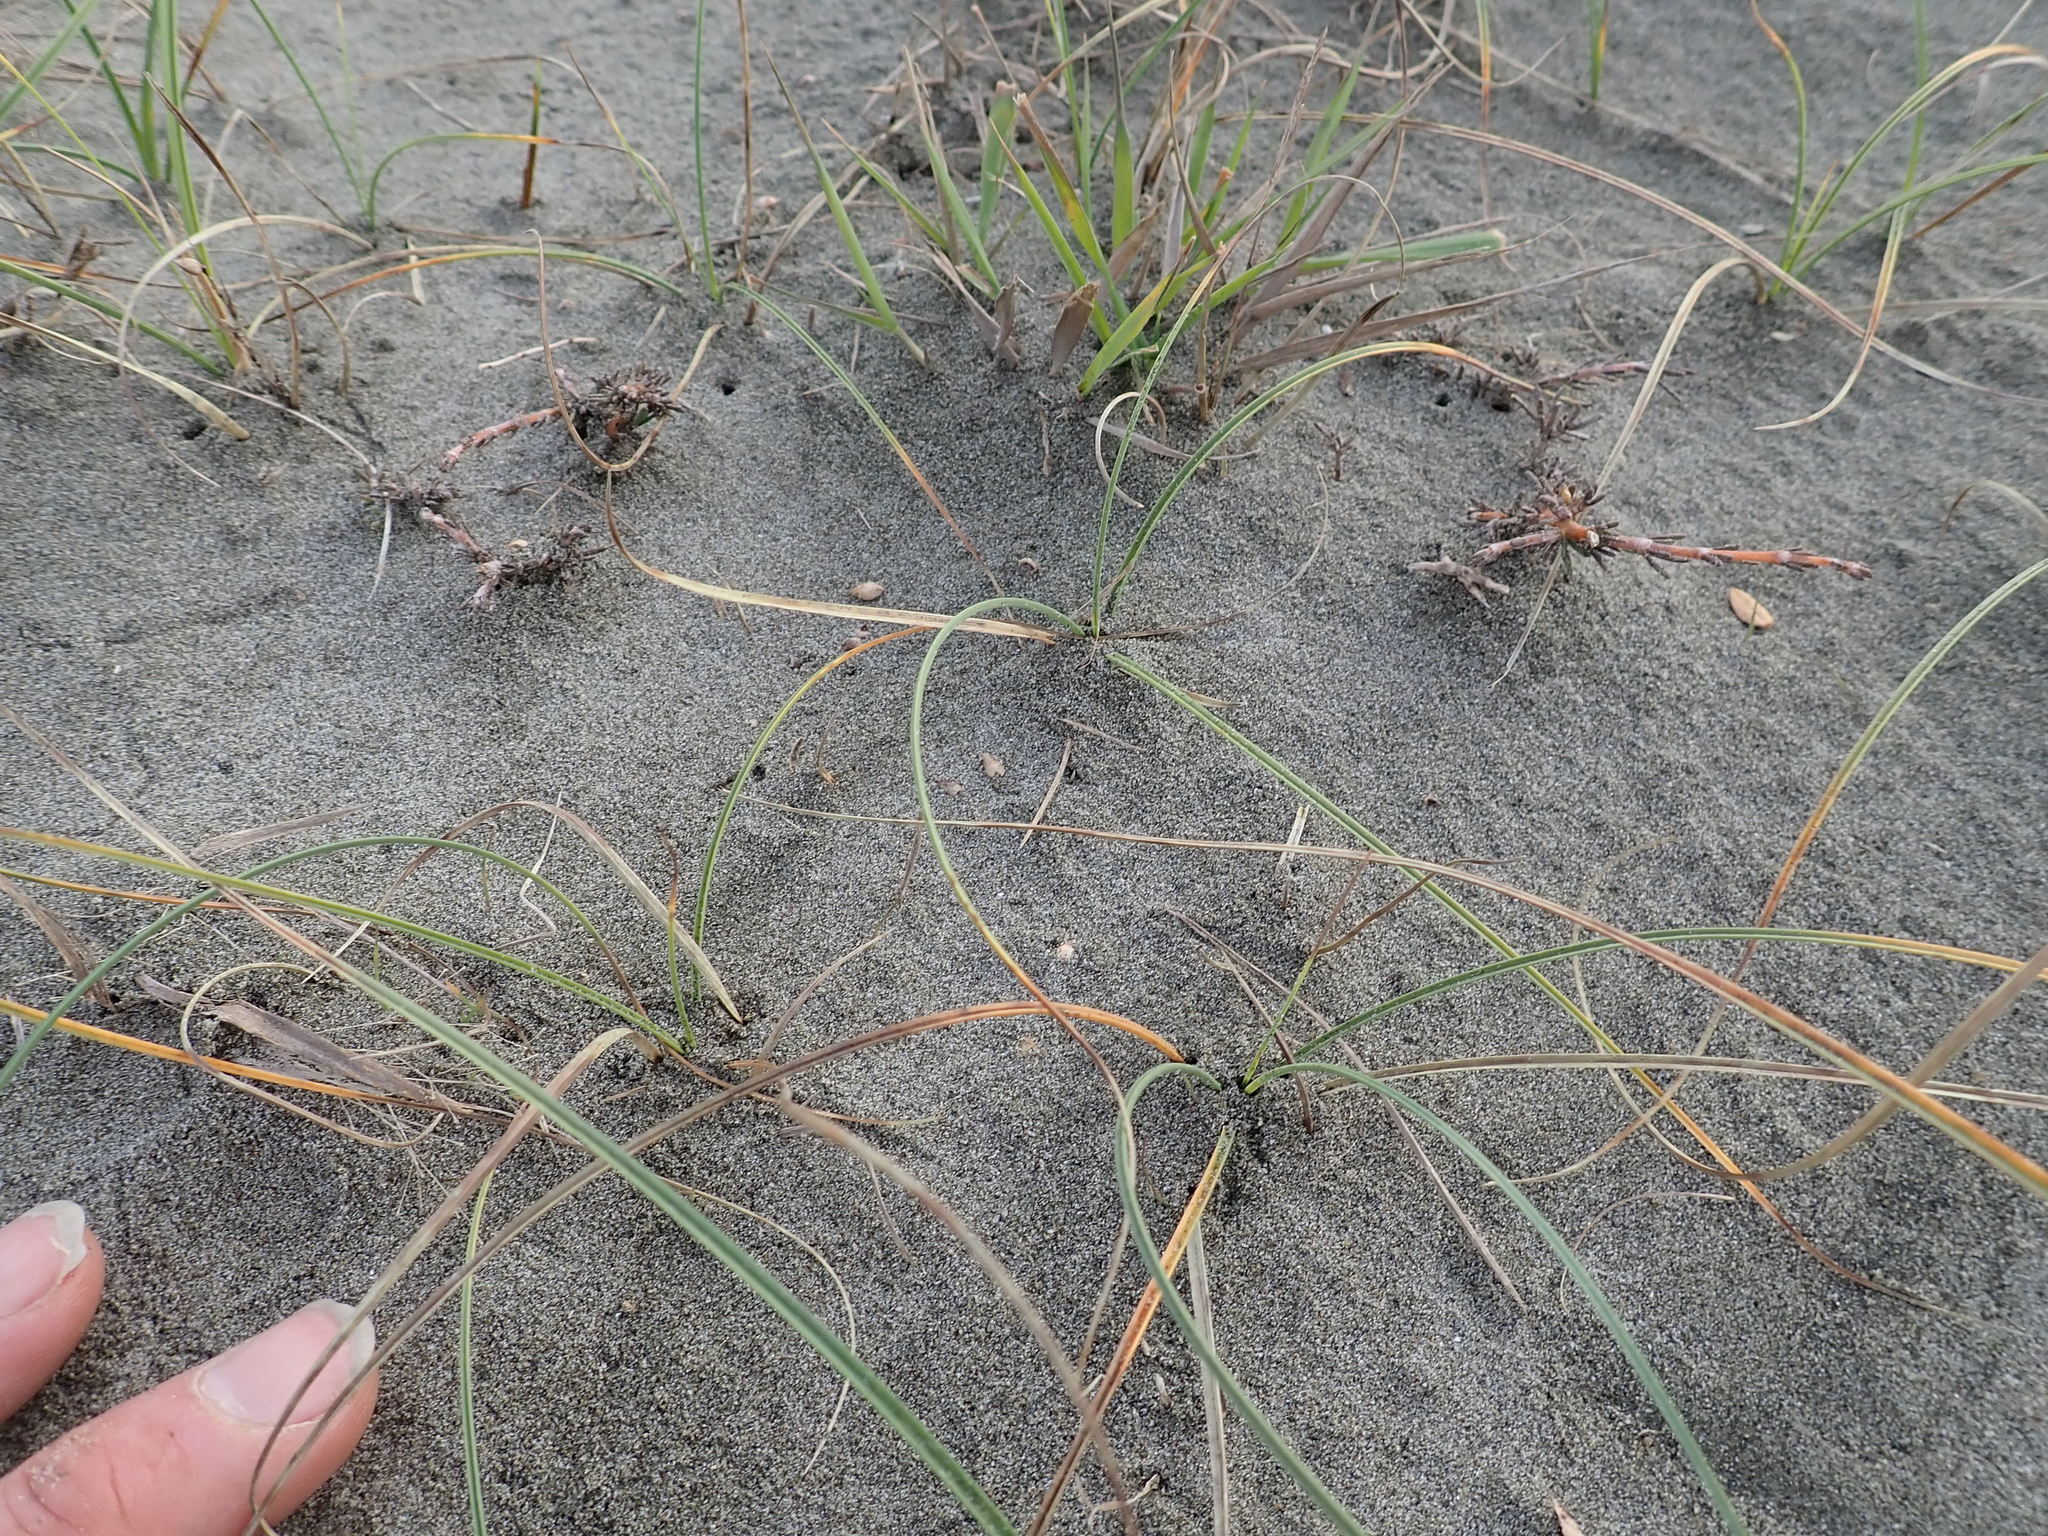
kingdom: Plantae
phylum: Tracheophyta
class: Magnoliopsida
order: Gentianales
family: Rubiaceae
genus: Coprosma
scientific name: Coprosma acerosa
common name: Sand coprosma
